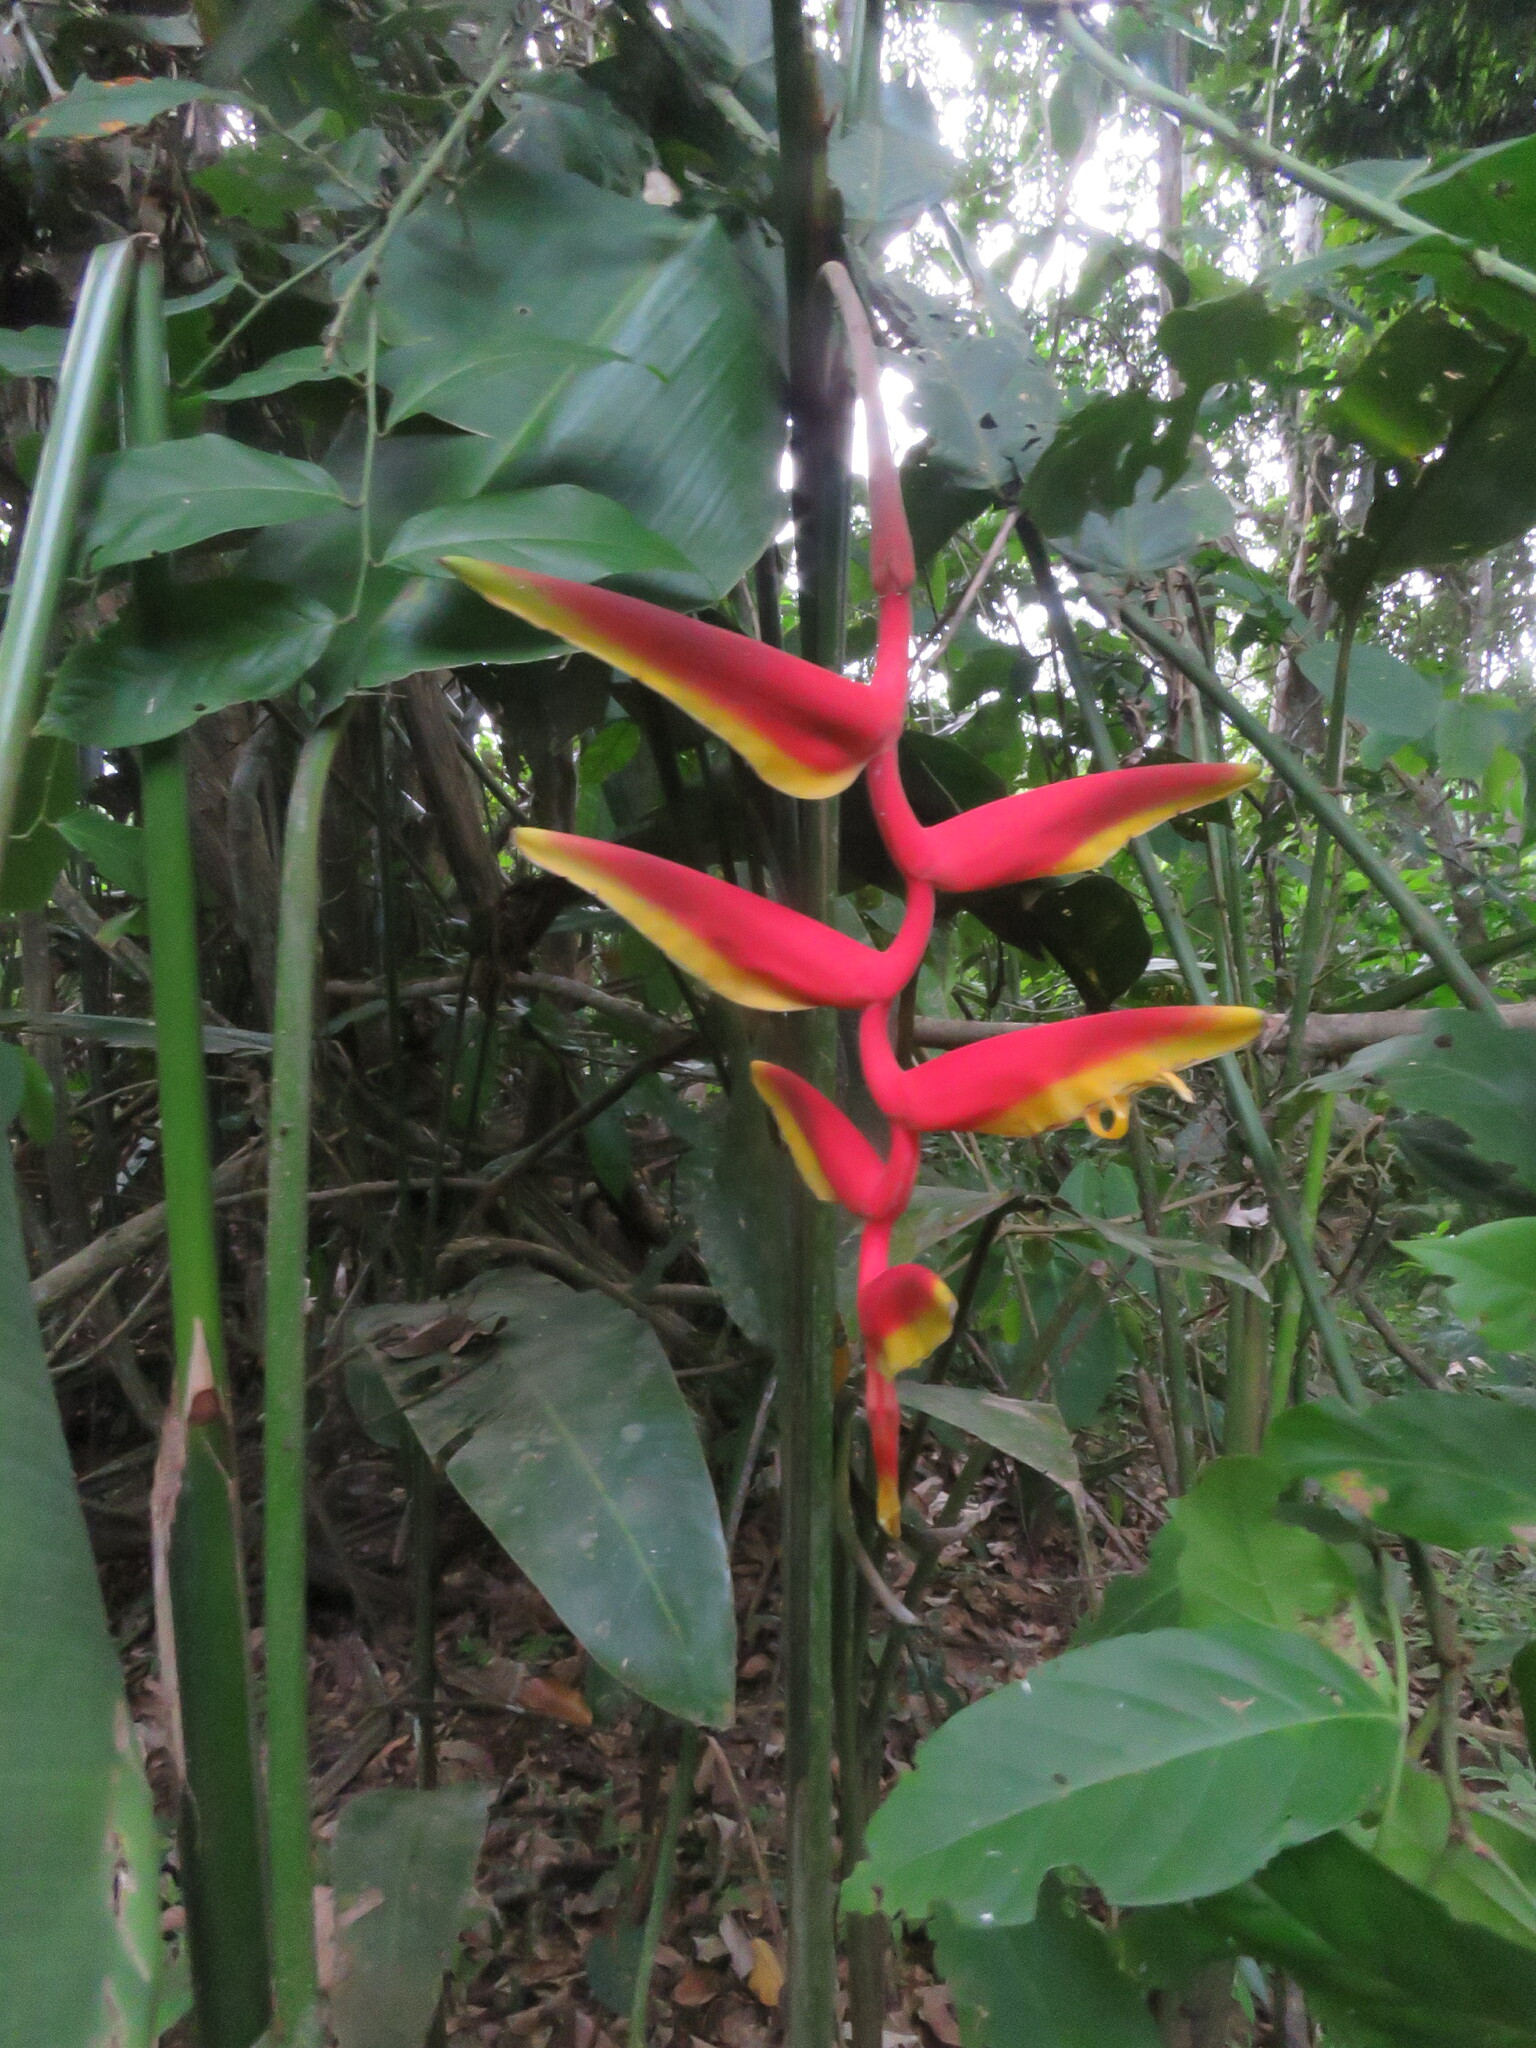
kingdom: Plantae
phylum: Tracheophyta
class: Liliopsida
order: Zingiberales
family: Heliconiaceae
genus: Heliconia
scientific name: Heliconia marginata
